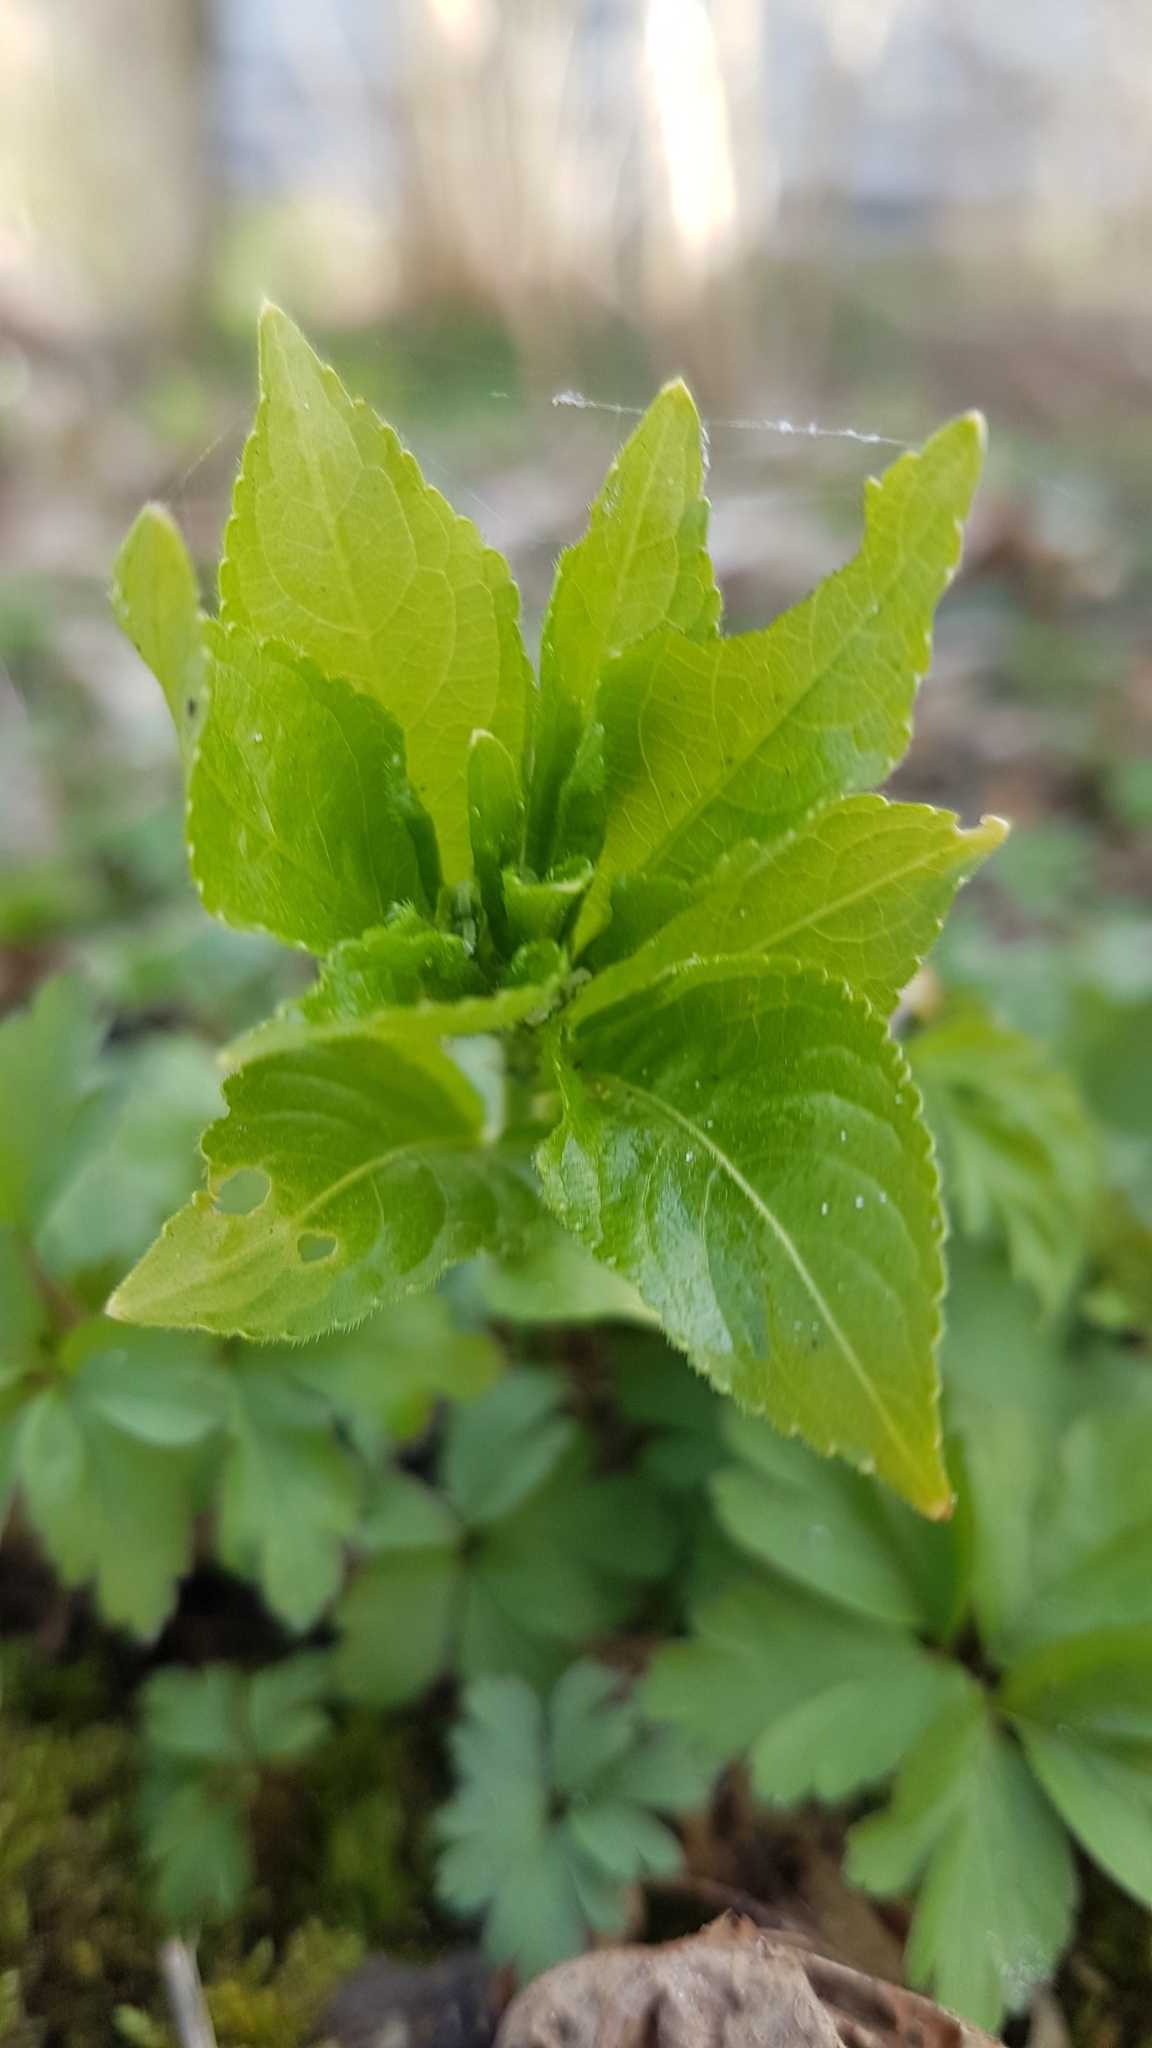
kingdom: Plantae
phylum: Tracheophyta
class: Magnoliopsida
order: Malpighiales
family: Euphorbiaceae
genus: Mercurialis
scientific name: Mercurialis perennis
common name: Dog mercury
